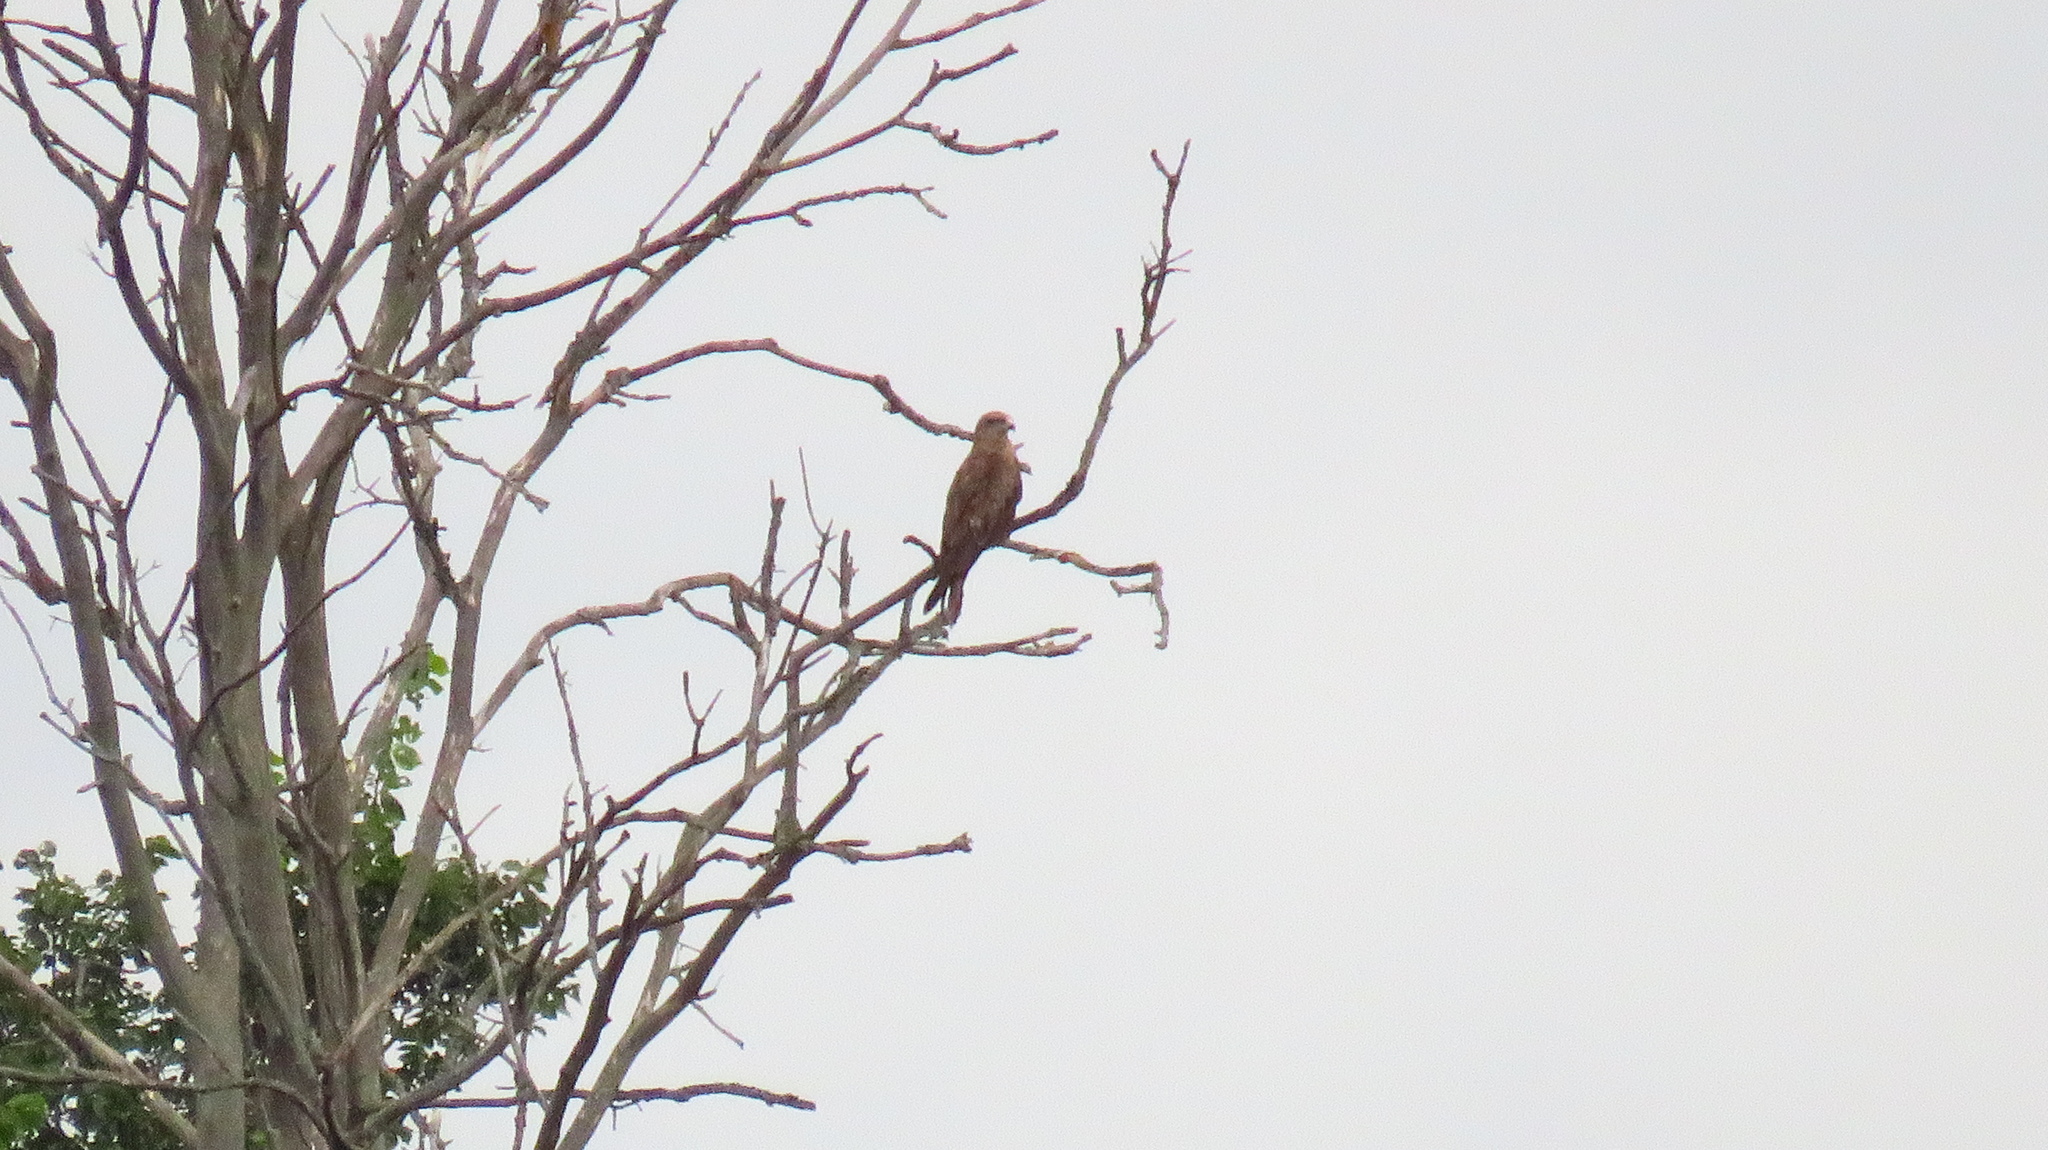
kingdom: Animalia
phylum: Chordata
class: Aves
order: Accipitriformes
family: Accipitridae
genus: Milvus
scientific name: Milvus migrans
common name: Black kite
